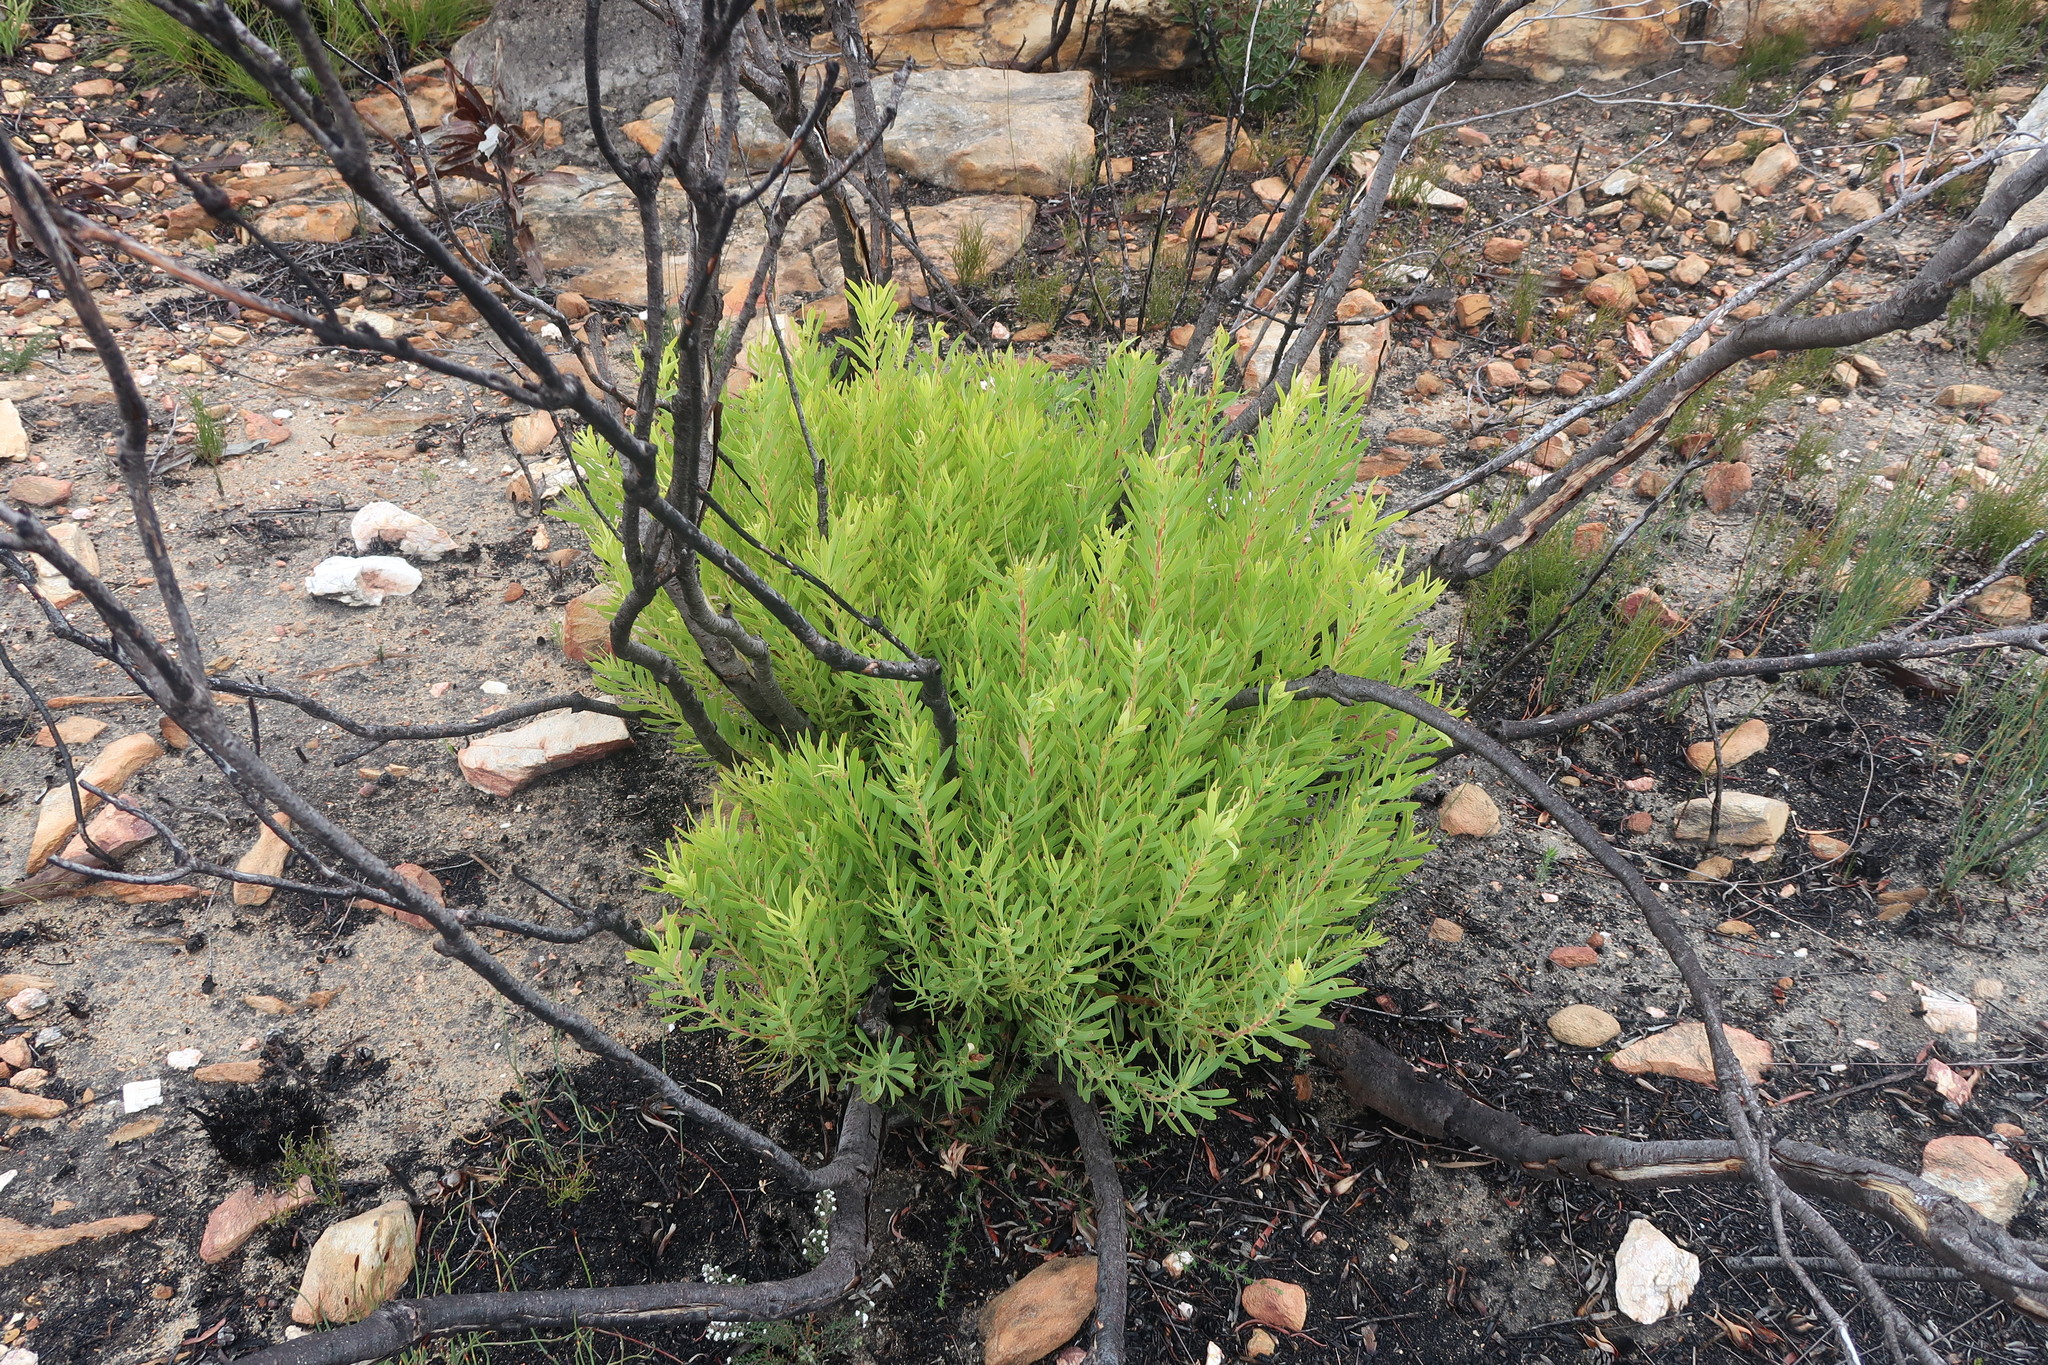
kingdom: Plantae
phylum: Tracheophyta
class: Magnoliopsida
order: Proteales
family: Proteaceae
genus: Leucadendron
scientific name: Leucadendron salignum
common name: Common sunshine conebush
